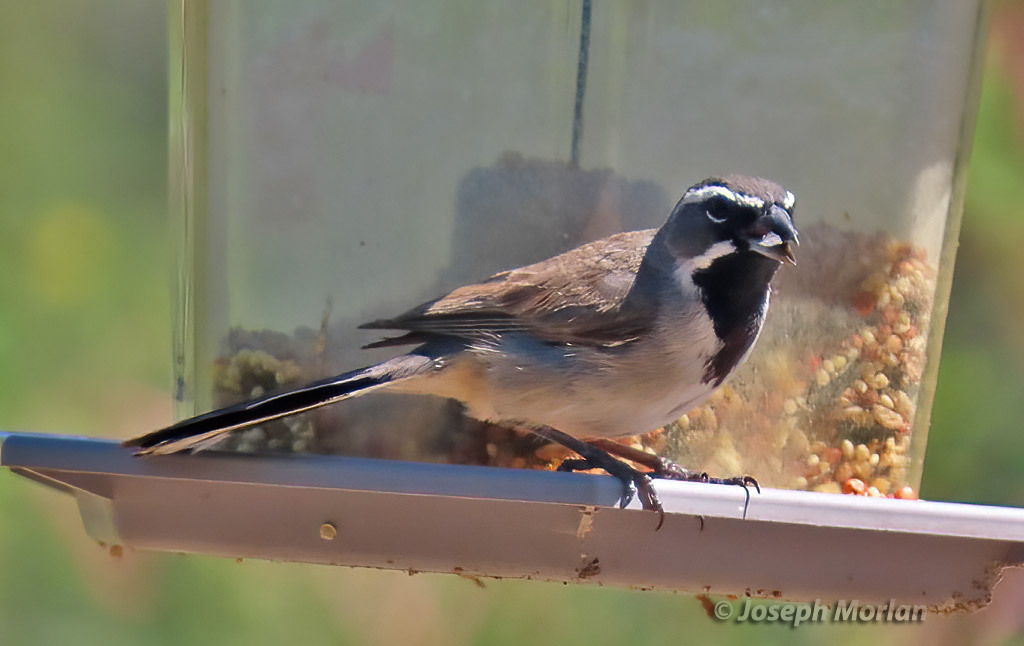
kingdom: Animalia
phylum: Chordata
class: Aves
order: Passeriformes
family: Passerellidae
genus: Amphispiza
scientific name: Amphispiza bilineata
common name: Black-throated sparrow
